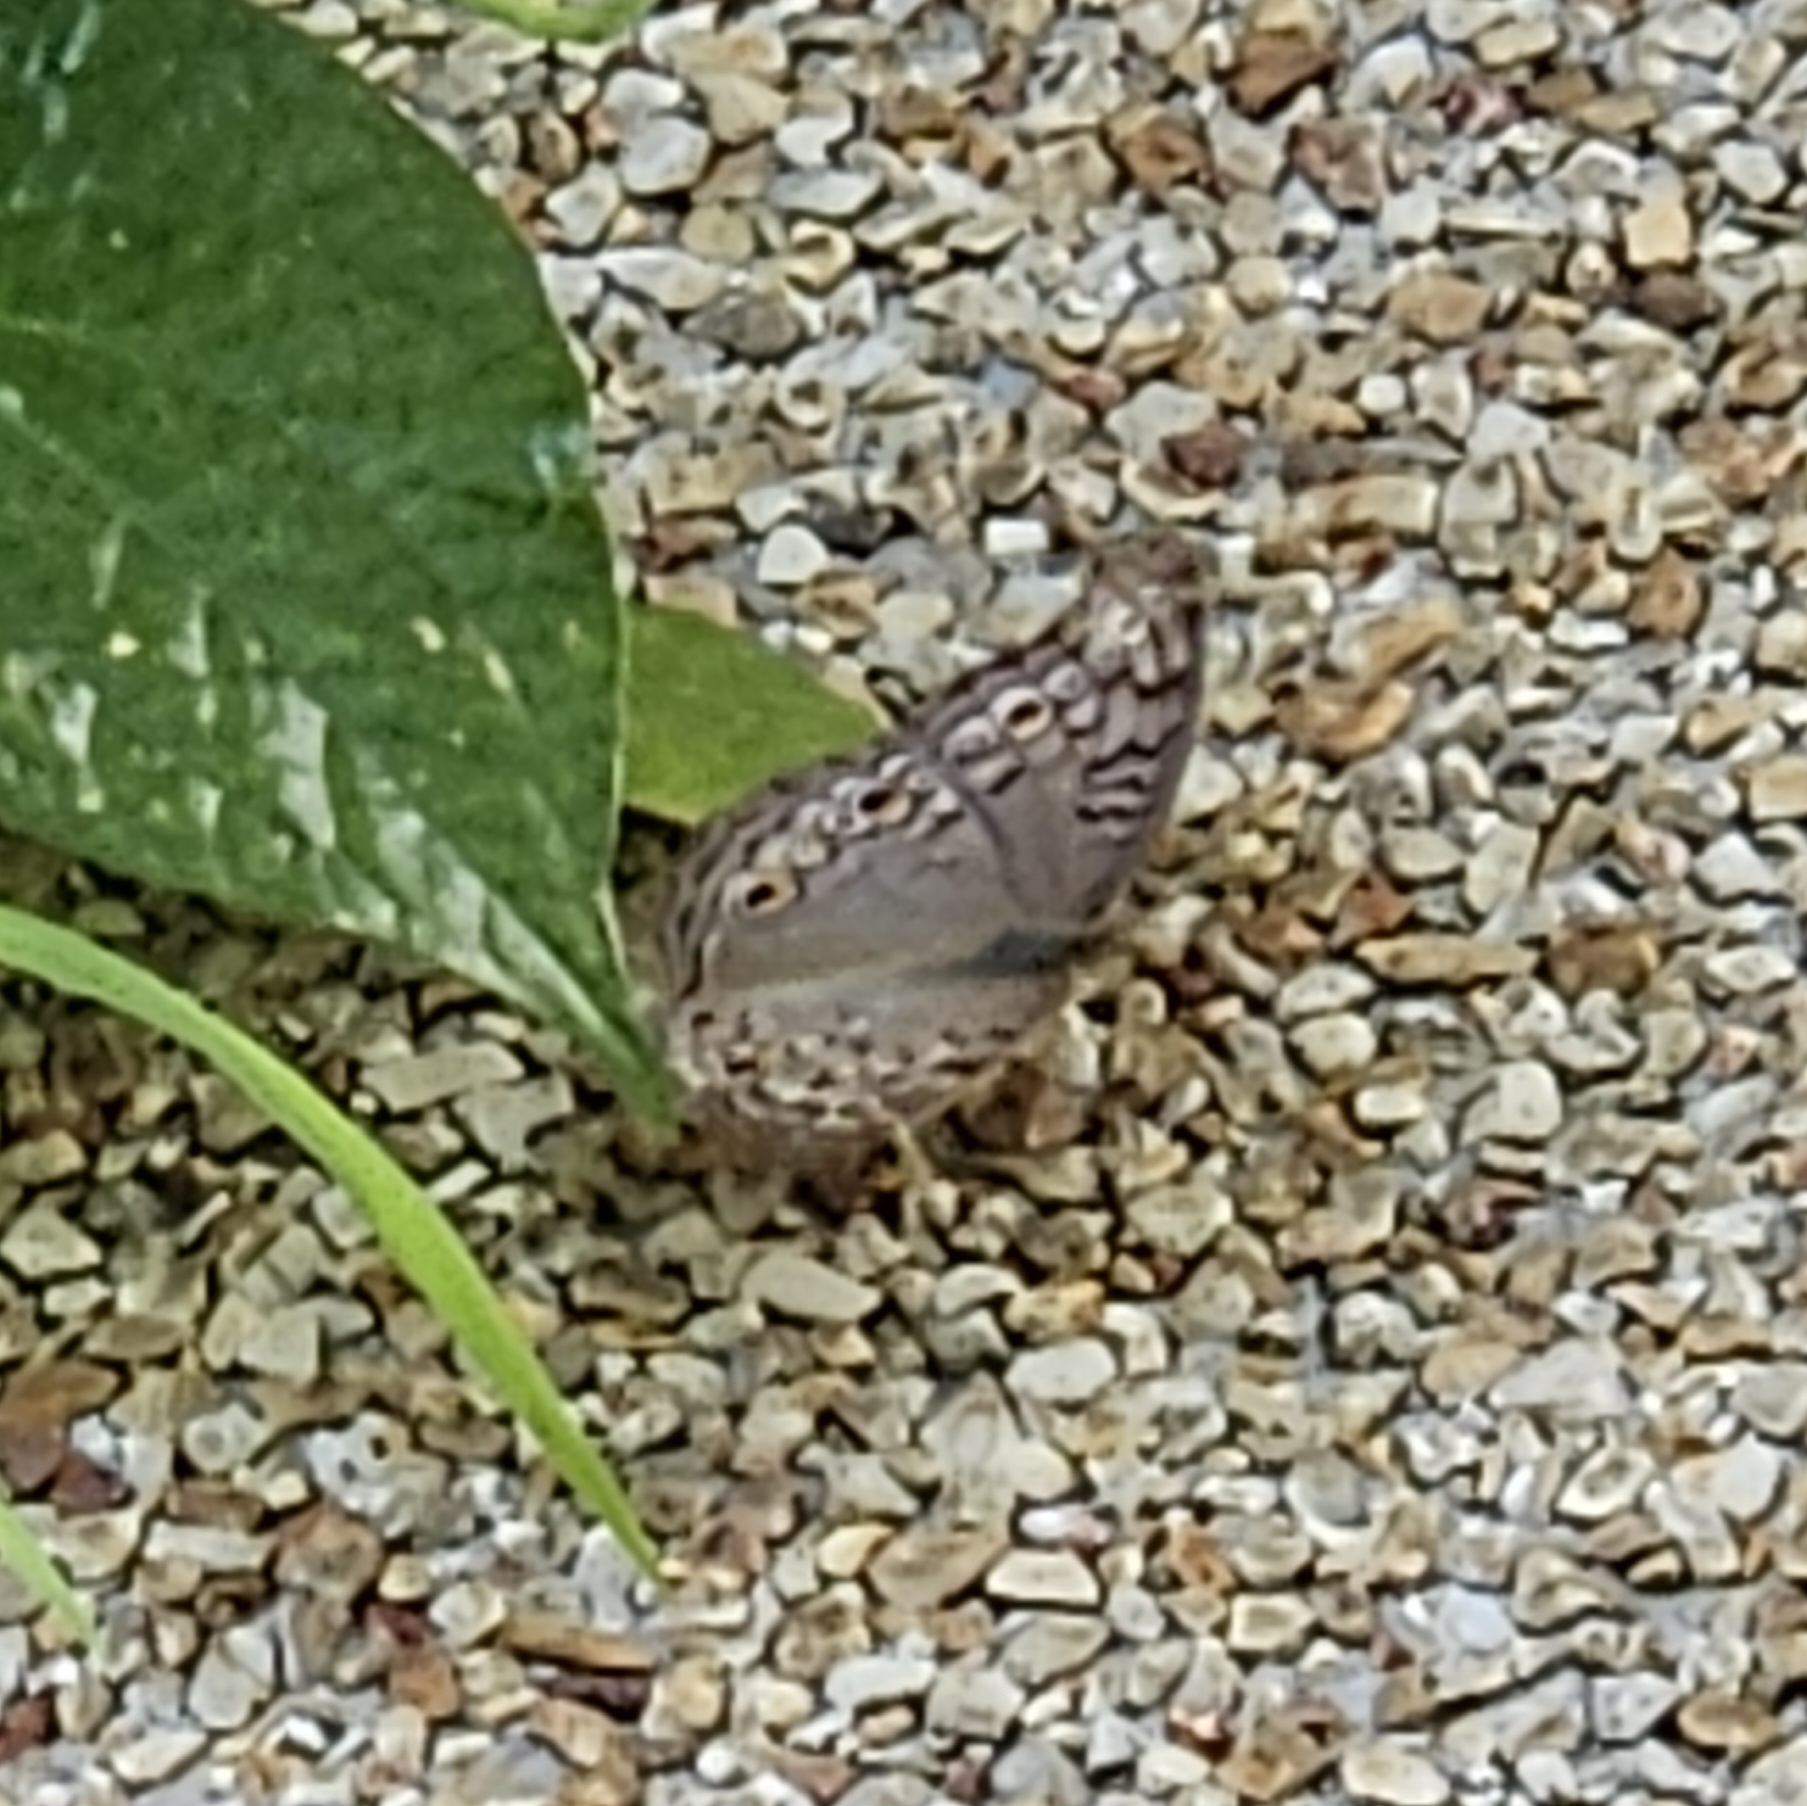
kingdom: Animalia
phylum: Arthropoda
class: Insecta
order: Lepidoptera
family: Nymphalidae
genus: Junonia
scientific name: Junonia atlites
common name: Grey pansy
